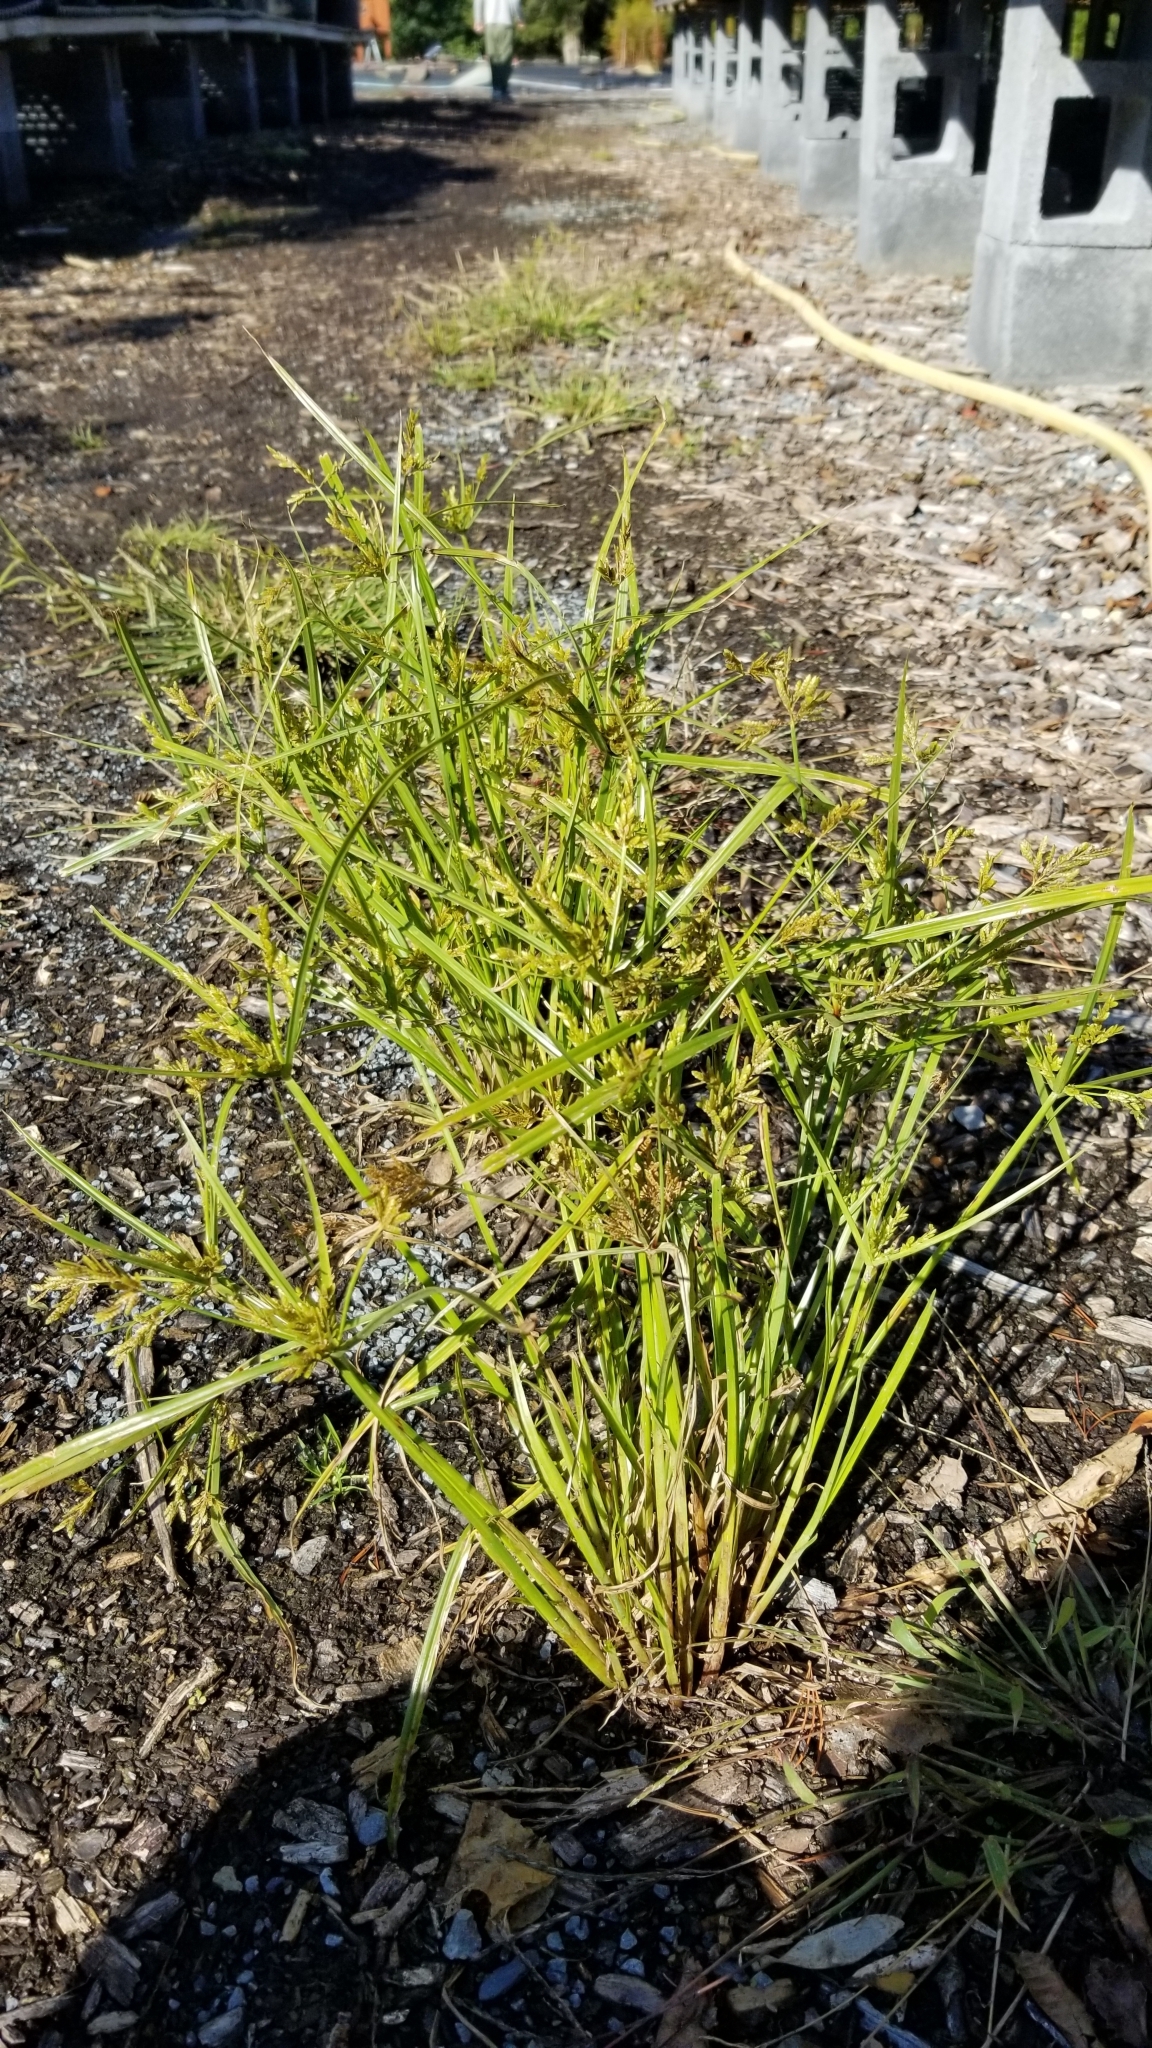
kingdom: Plantae
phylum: Tracheophyta
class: Liliopsida
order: Poales
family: Cyperaceae
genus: Cyperus
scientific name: Cyperus iria
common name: Ricefield flatsedge
